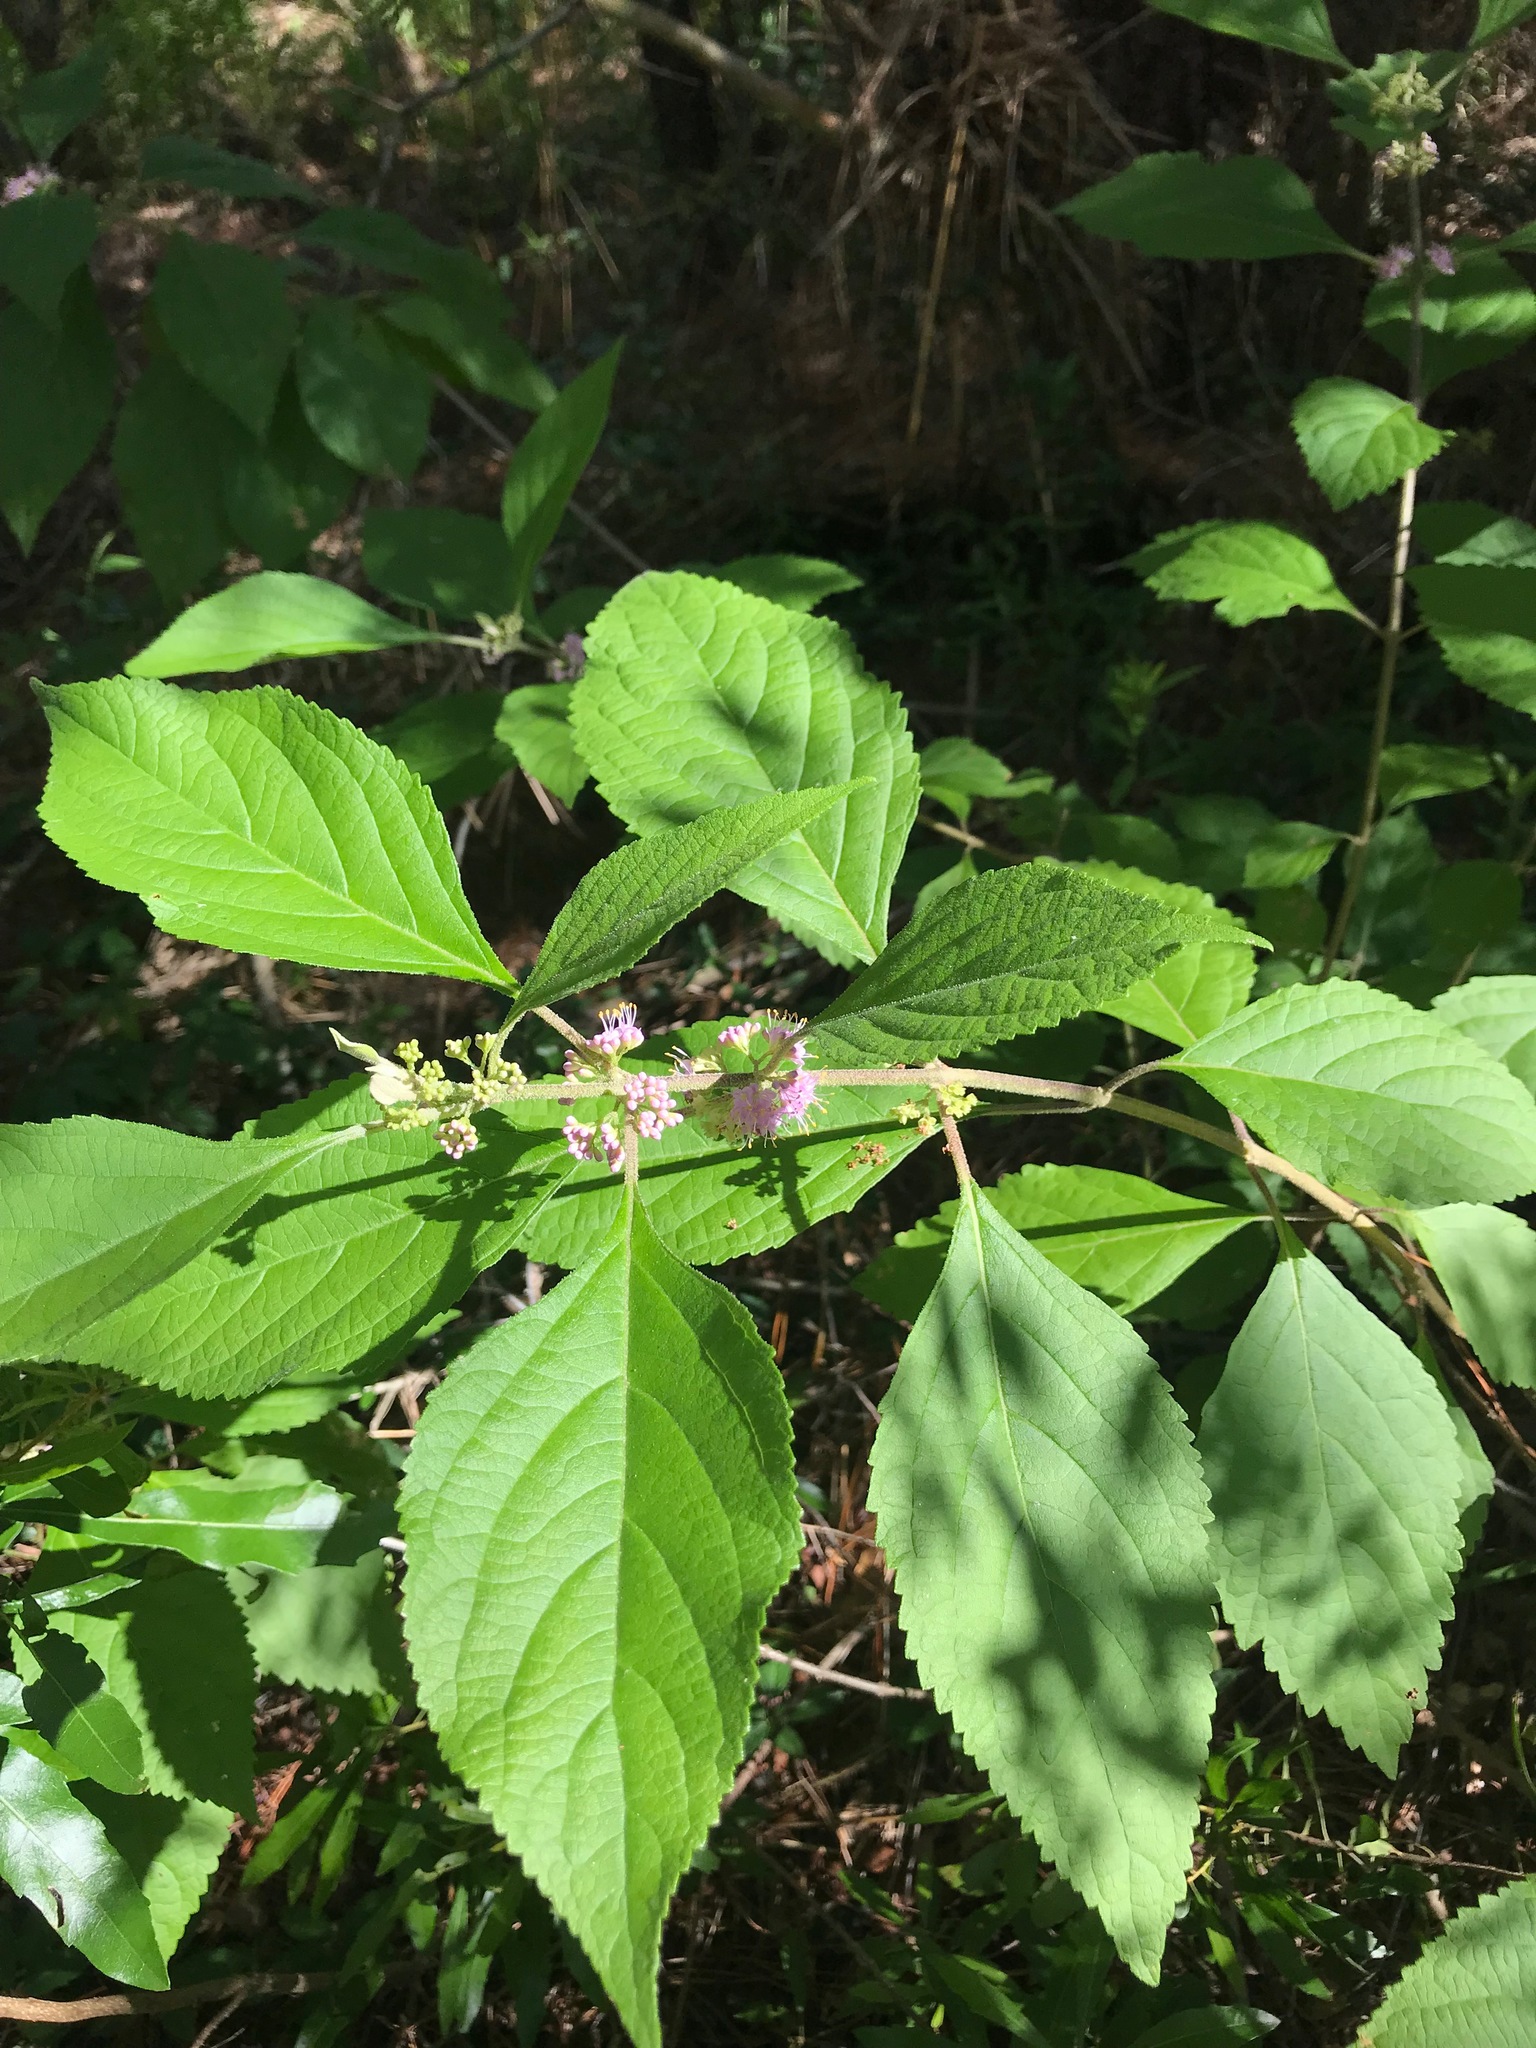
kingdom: Plantae
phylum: Tracheophyta
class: Magnoliopsida
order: Lamiales
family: Lamiaceae
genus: Callicarpa
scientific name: Callicarpa americana
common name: American beautyberry
